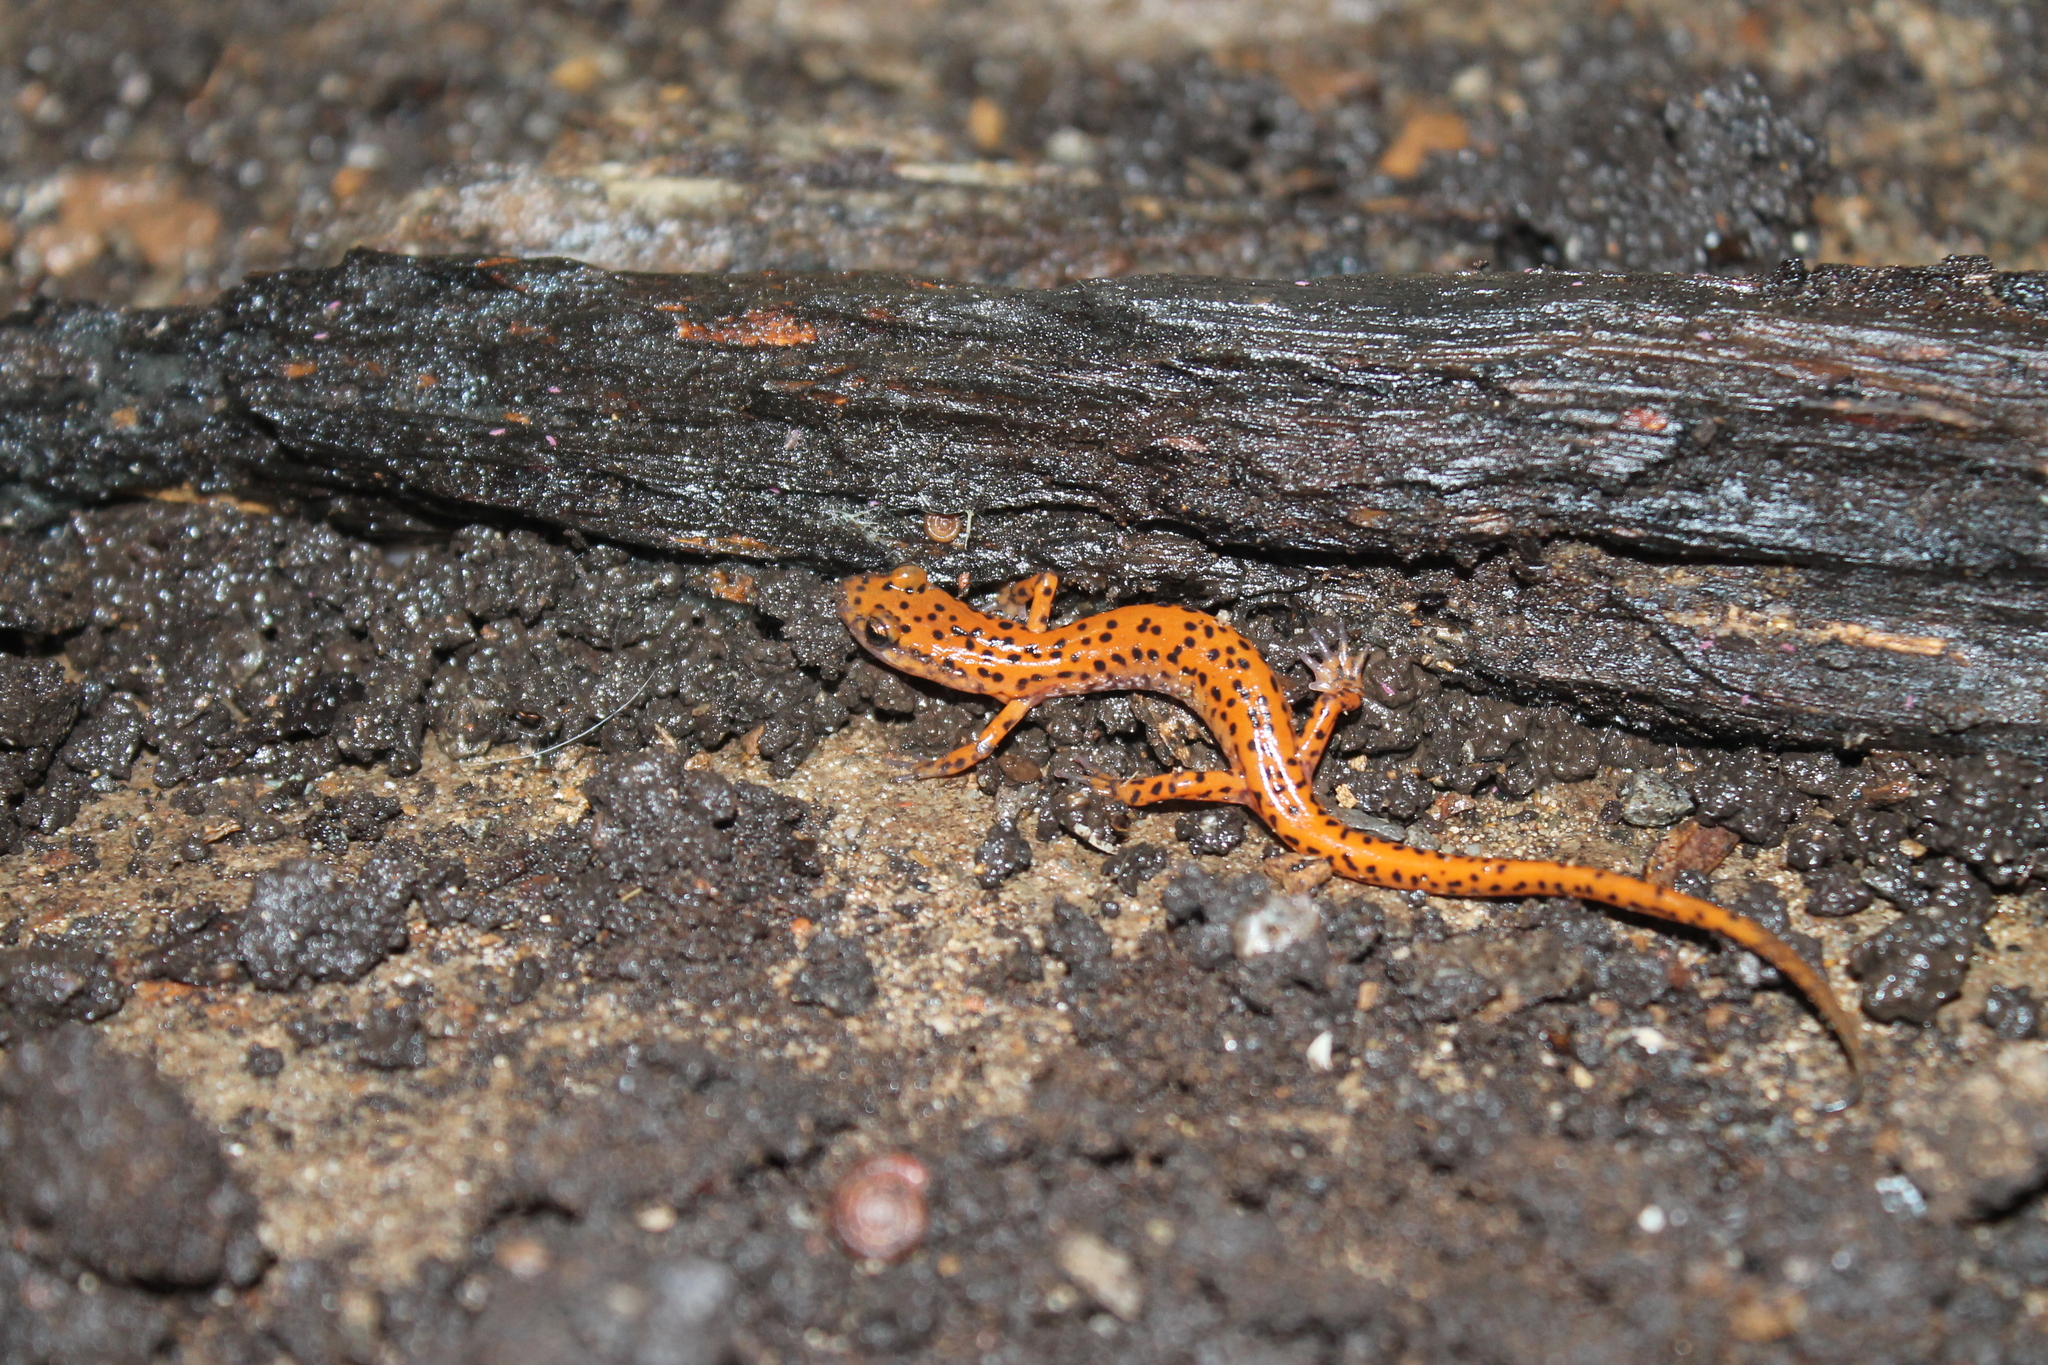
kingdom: Animalia
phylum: Chordata
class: Amphibia
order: Caudata
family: Plethodontidae
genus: Eurycea
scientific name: Eurycea lucifuga
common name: Cave salamander
